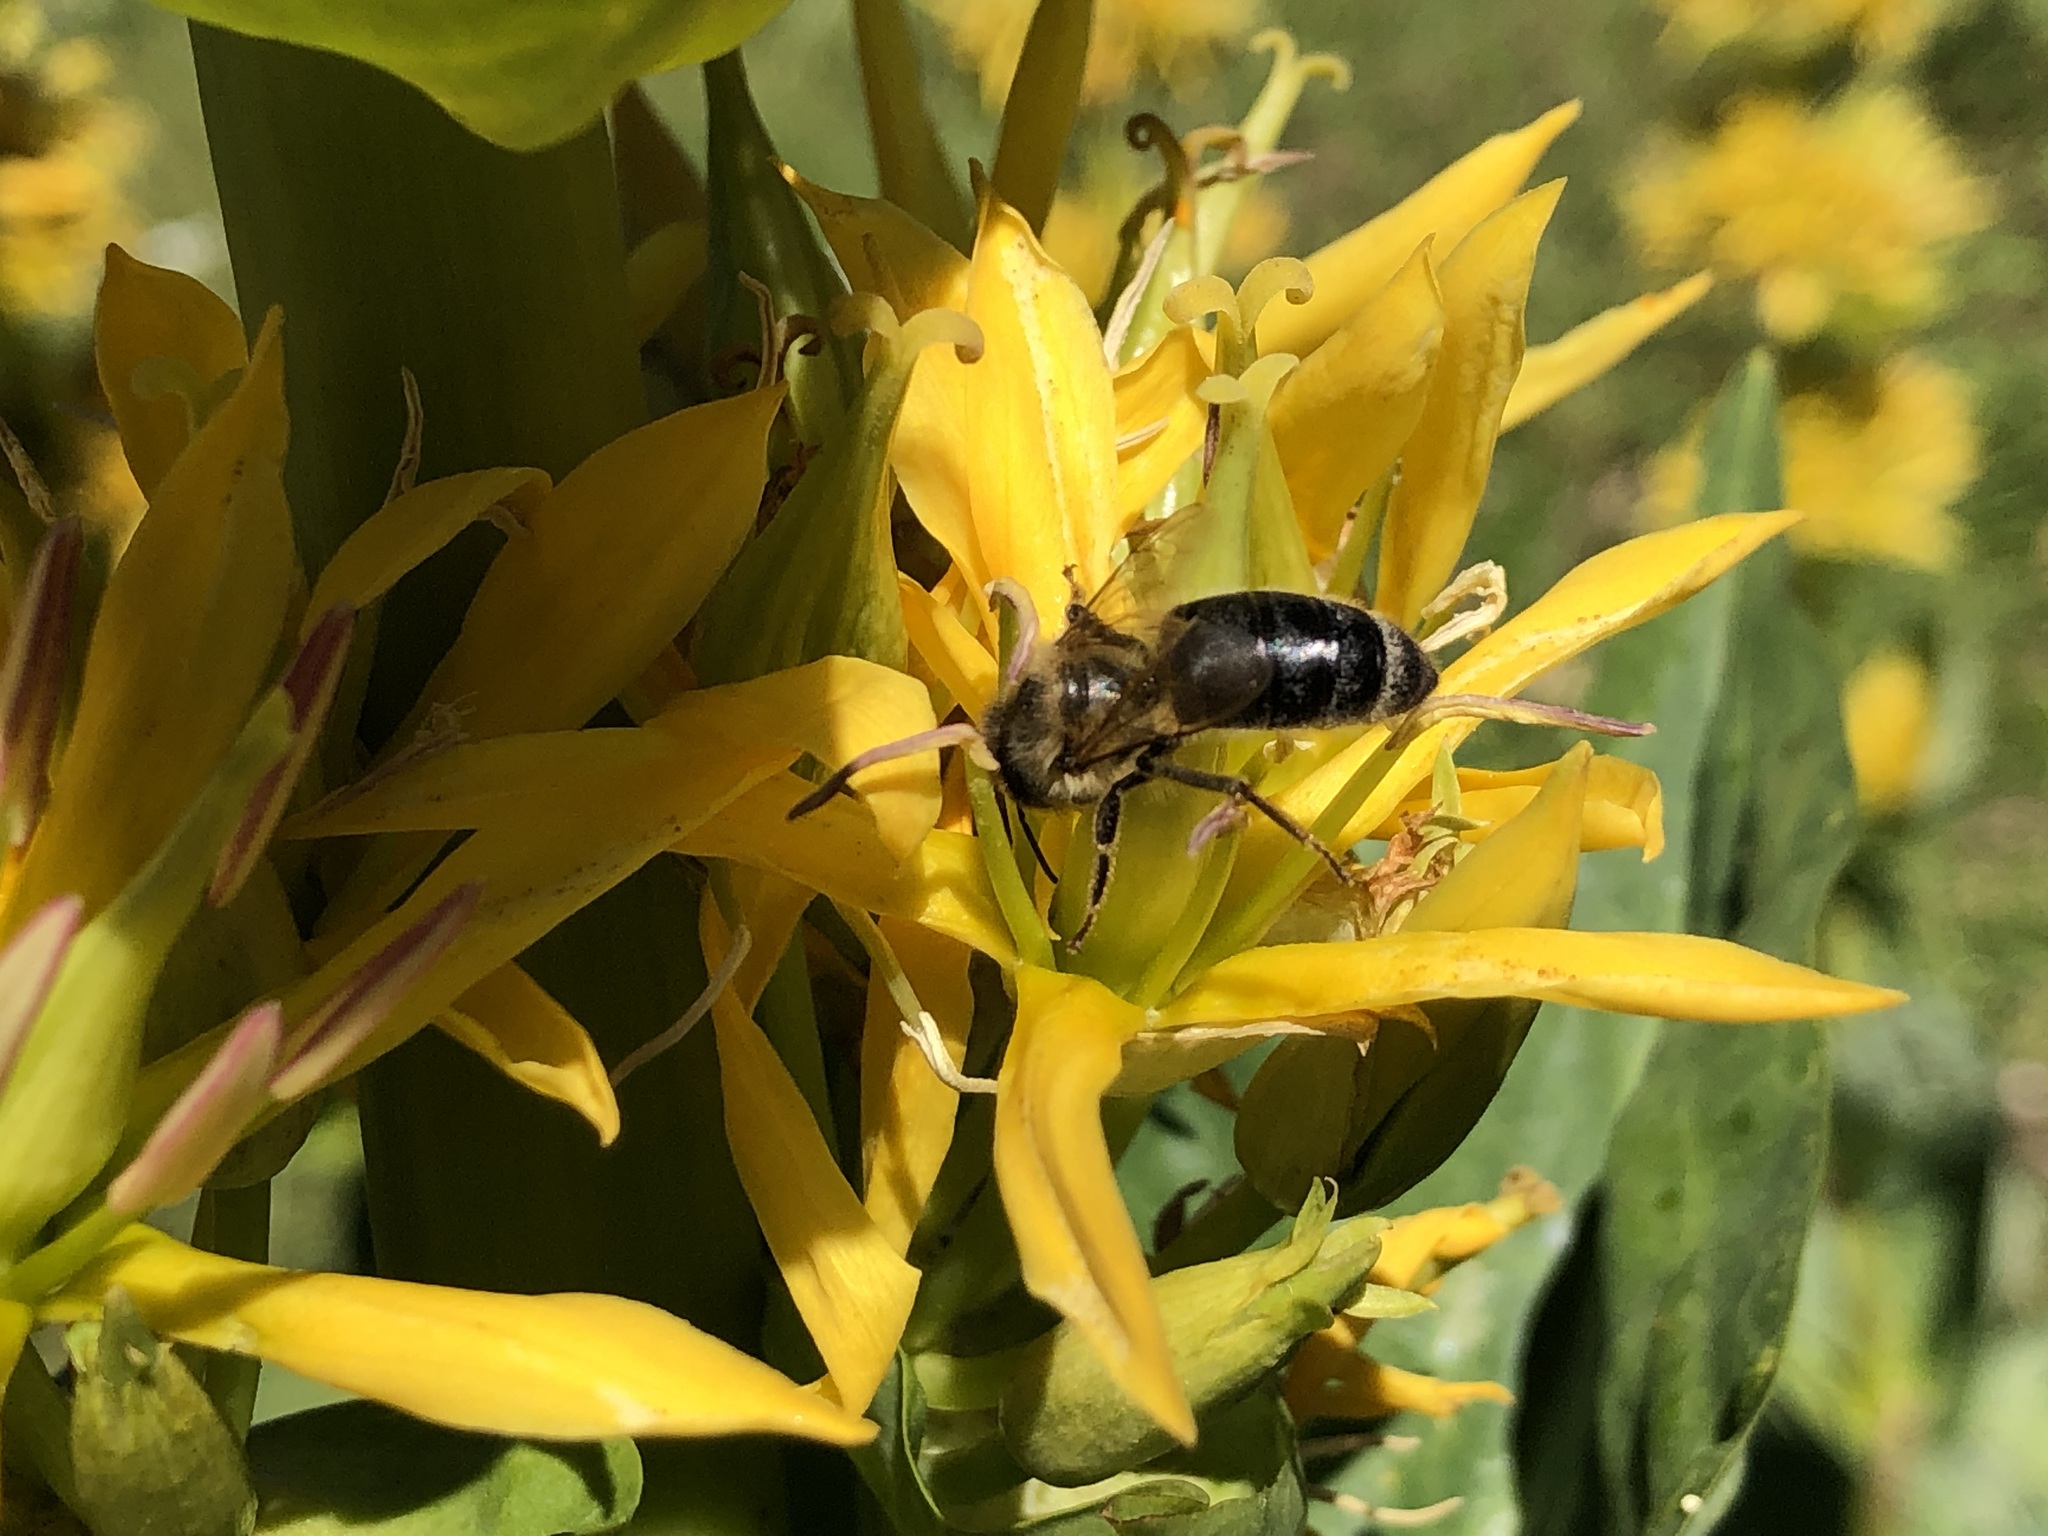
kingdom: Animalia
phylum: Arthropoda
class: Insecta
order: Hymenoptera
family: Apidae
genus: Apis
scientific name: Apis mellifera
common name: Honey bee
